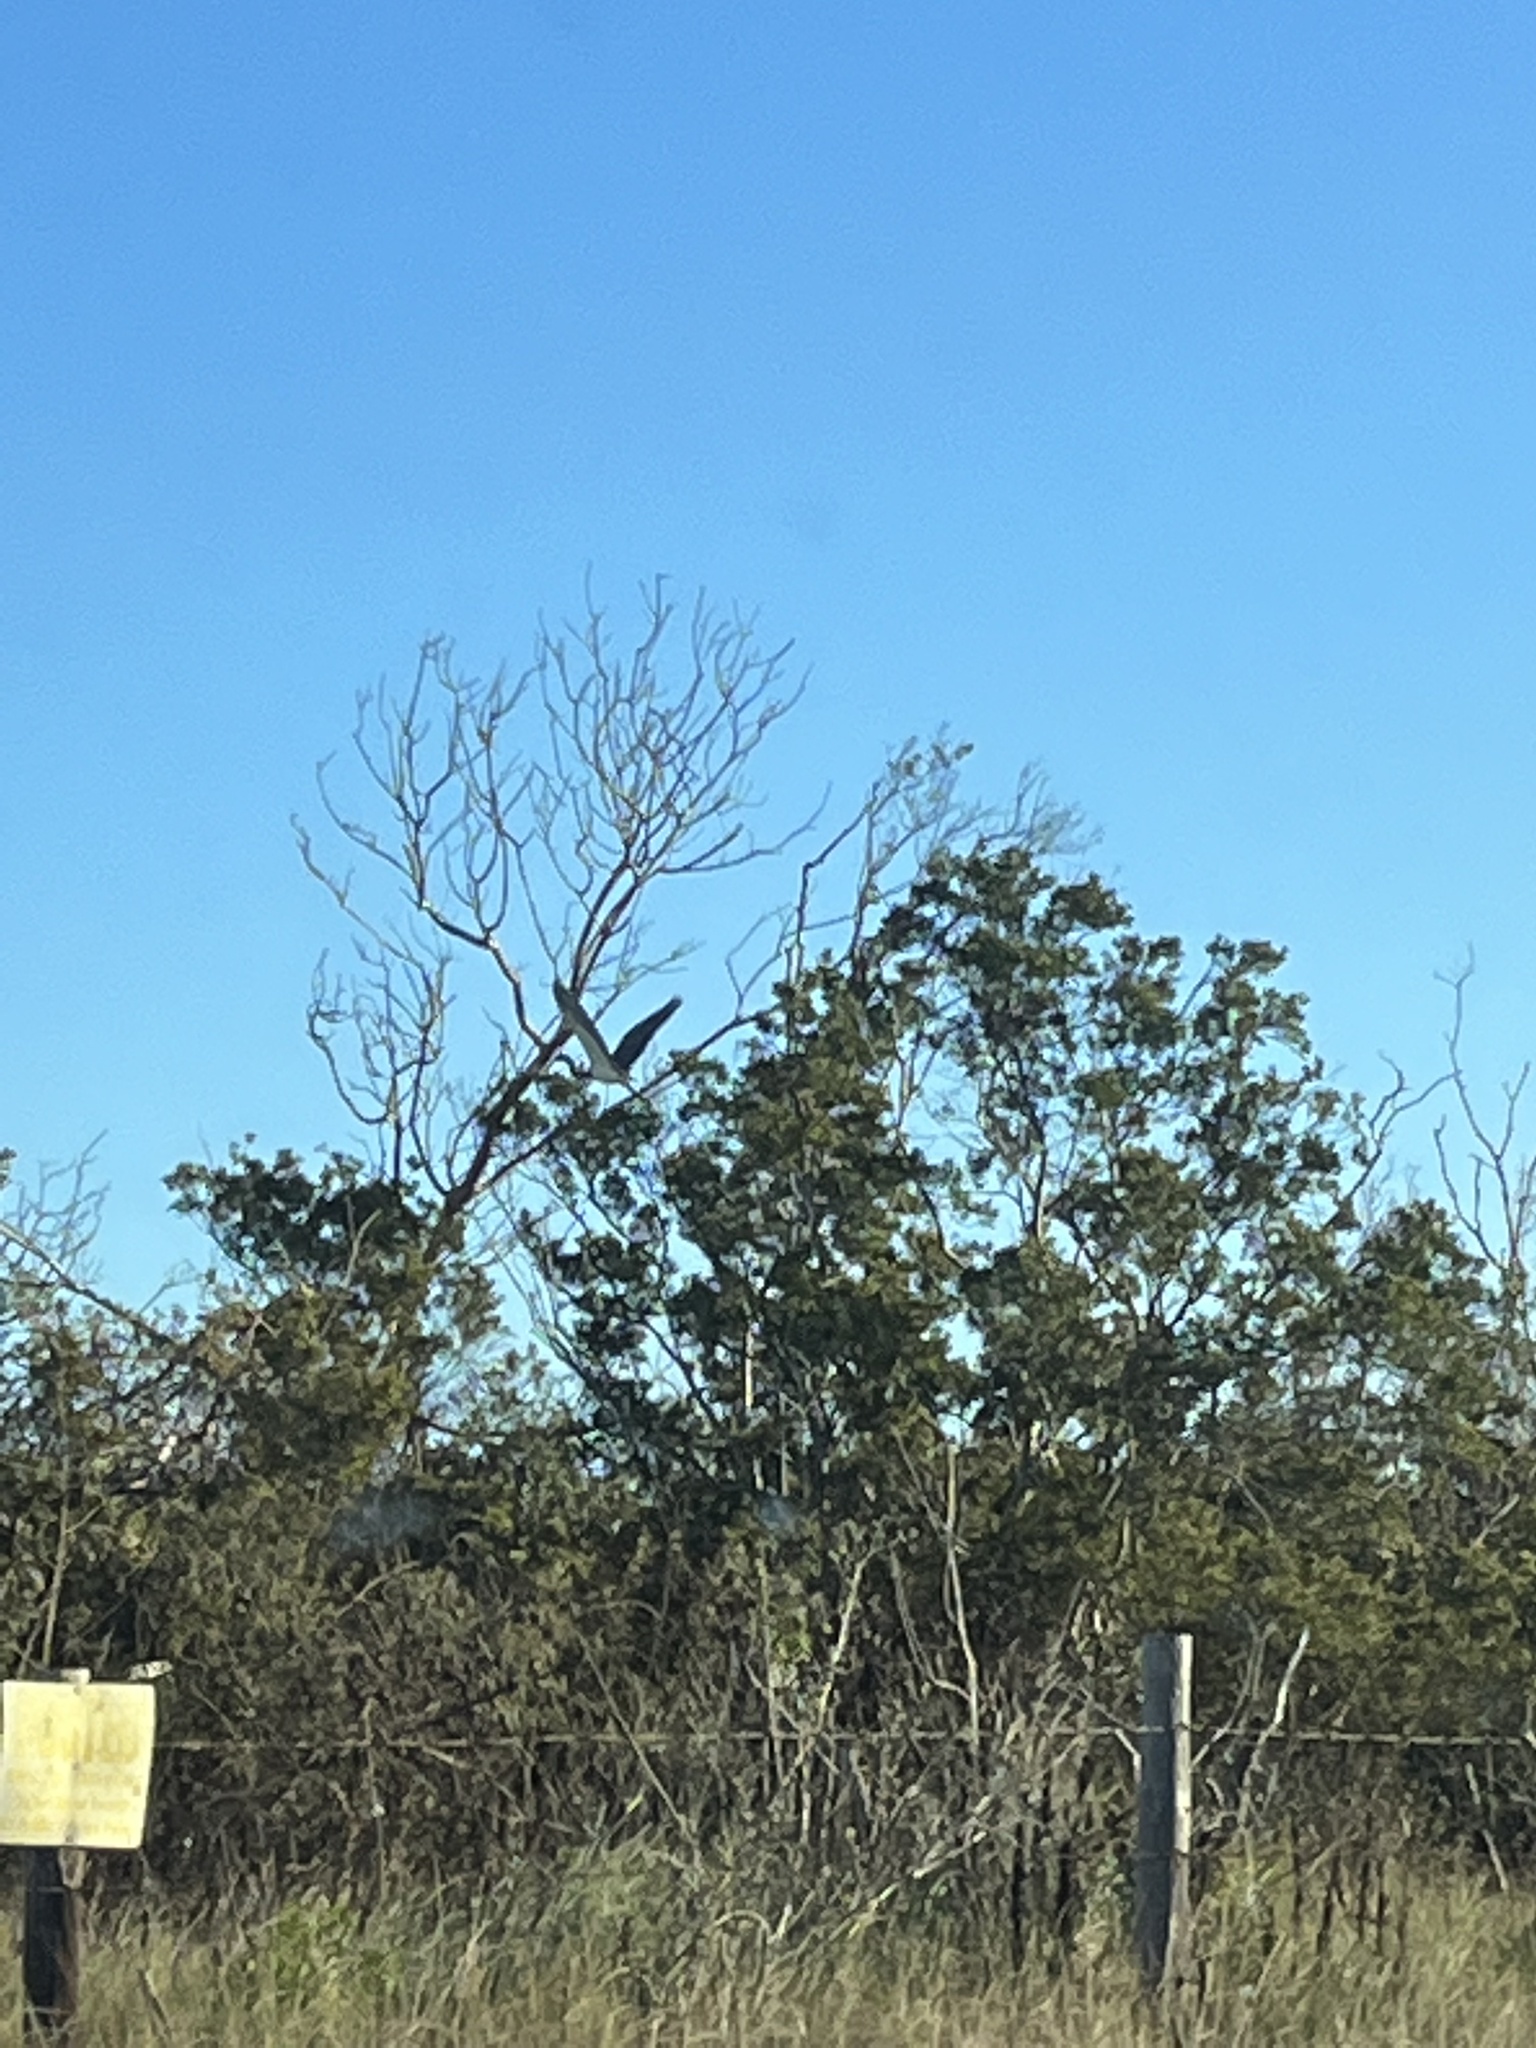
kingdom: Animalia
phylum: Chordata
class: Aves
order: Pelecaniformes
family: Ardeidae
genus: Egretta
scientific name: Egretta tricolor
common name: Tricolored heron
